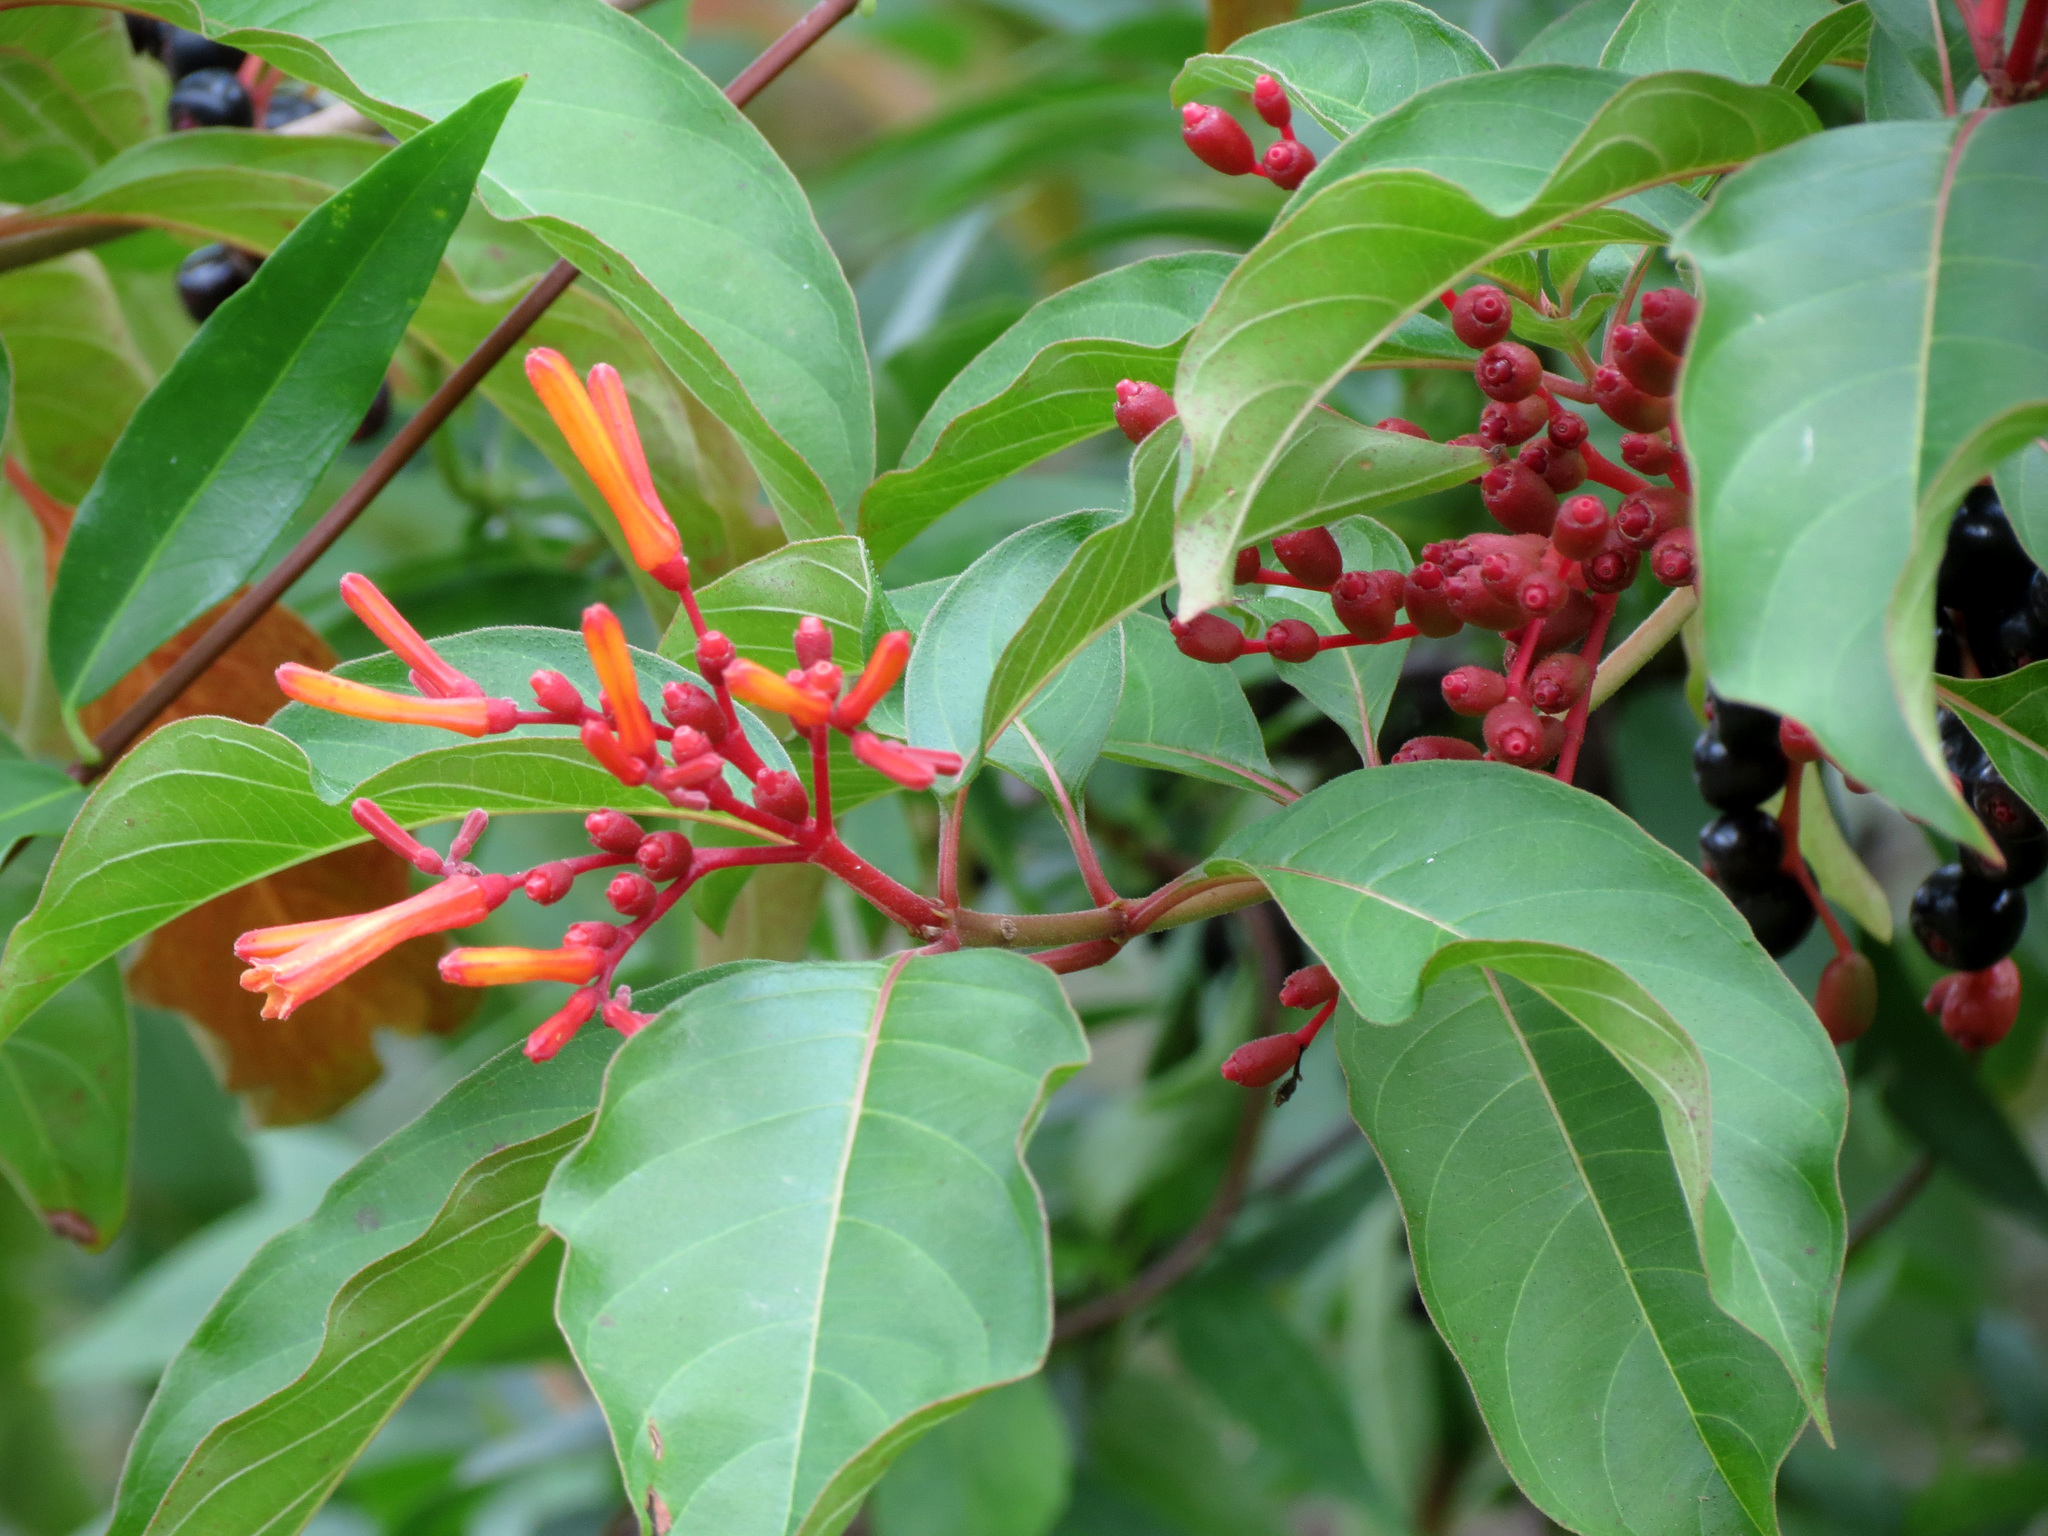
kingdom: Plantae
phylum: Tracheophyta
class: Magnoliopsida
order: Gentianales
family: Rubiaceae
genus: Hamelia
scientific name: Hamelia patens
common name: Redhead
